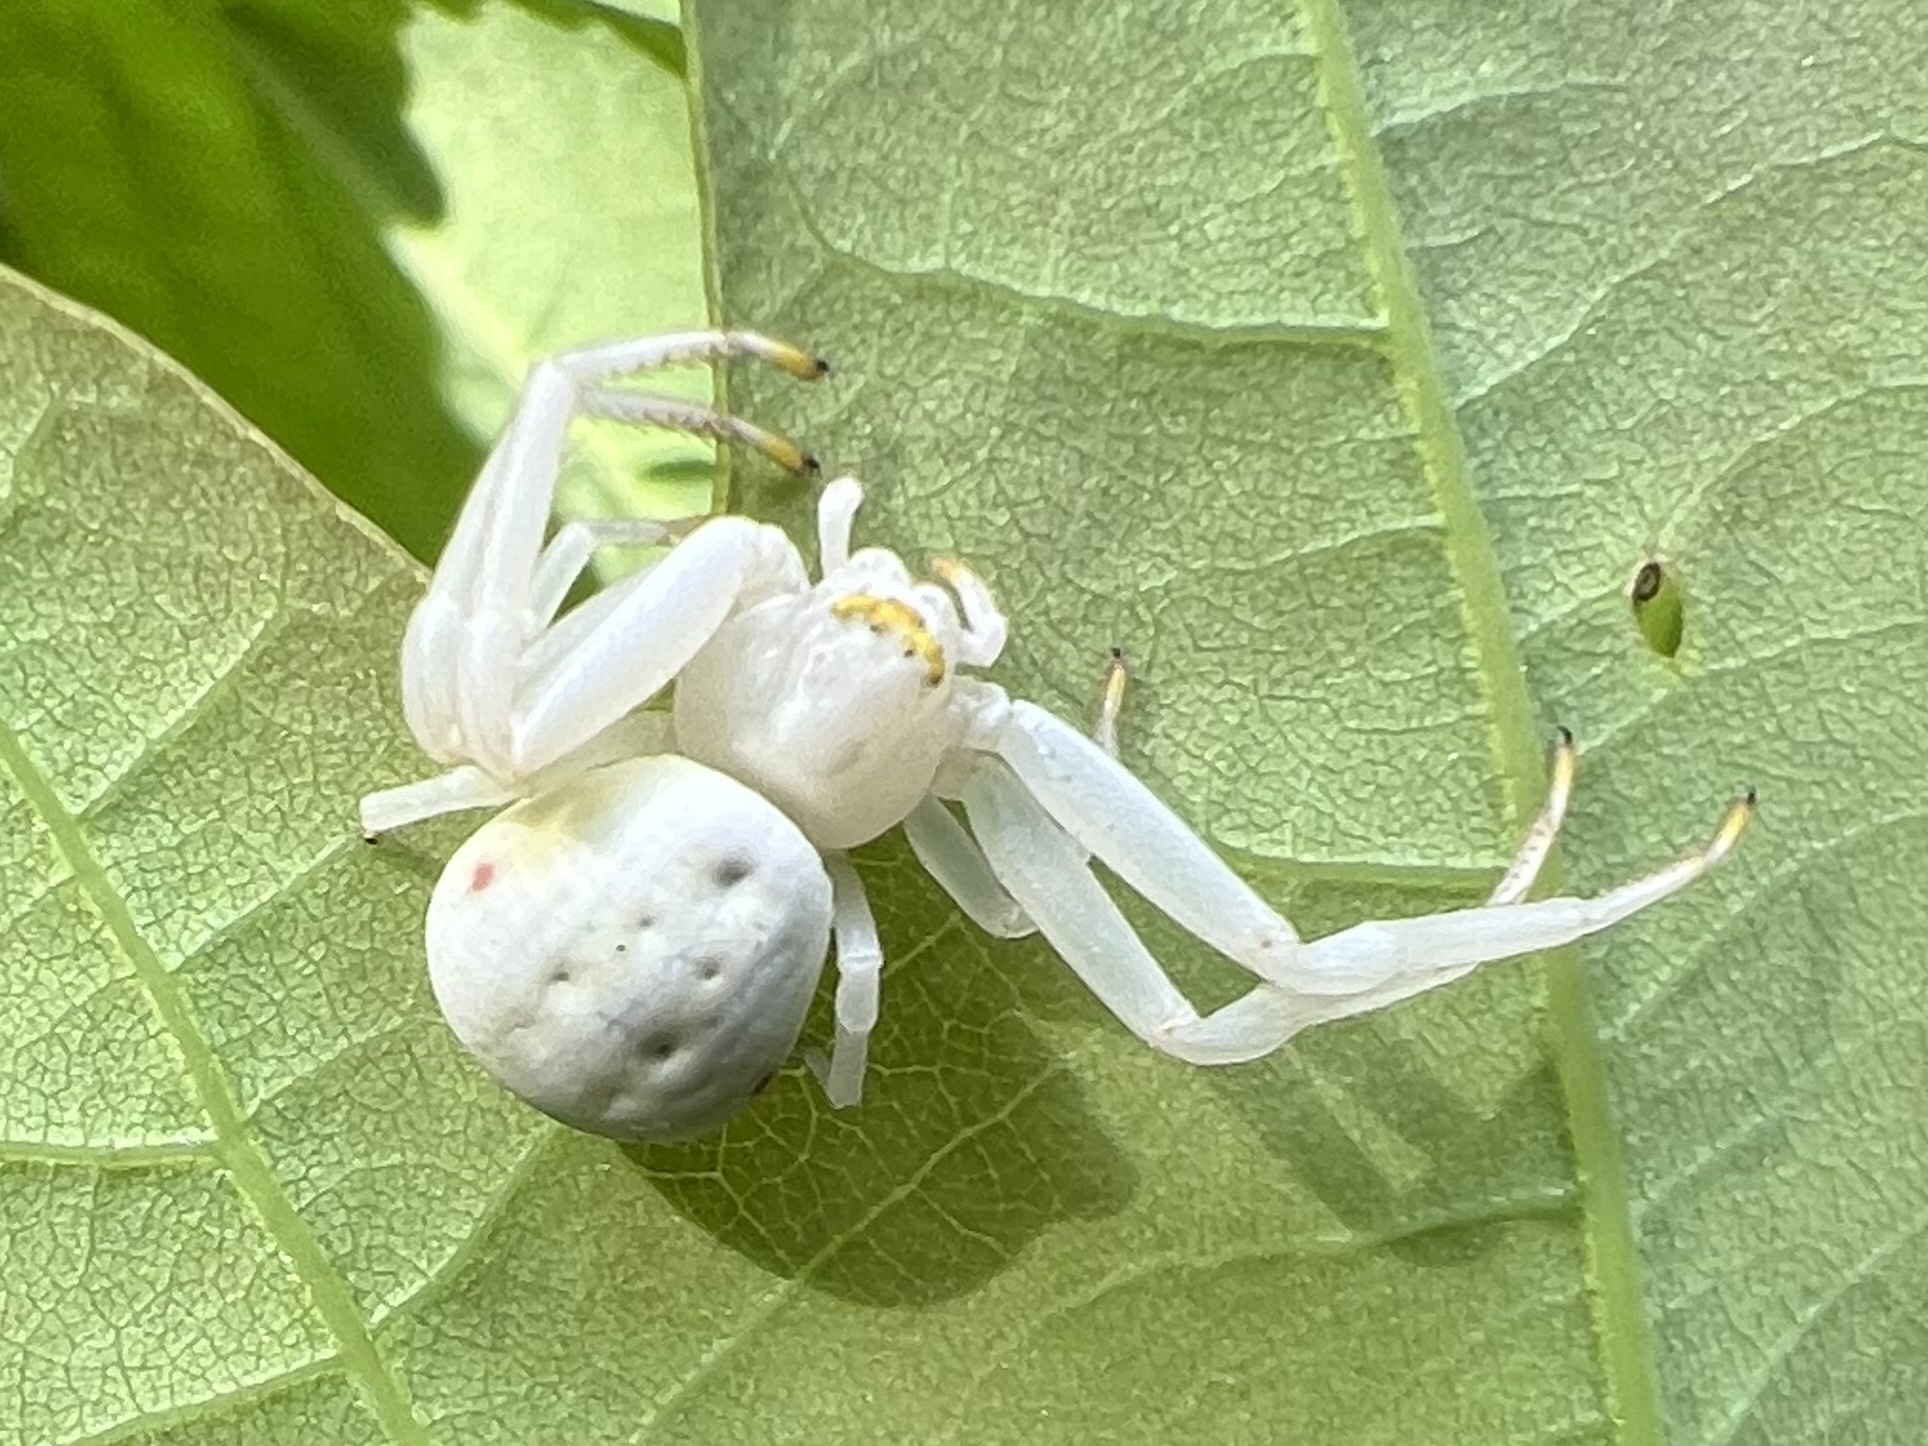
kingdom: Animalia
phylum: Arthropoda
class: Arachnida
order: Araneae
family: Thomisidae
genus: Misumena
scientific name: Misumena vatia
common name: Goldenrod crab spider
